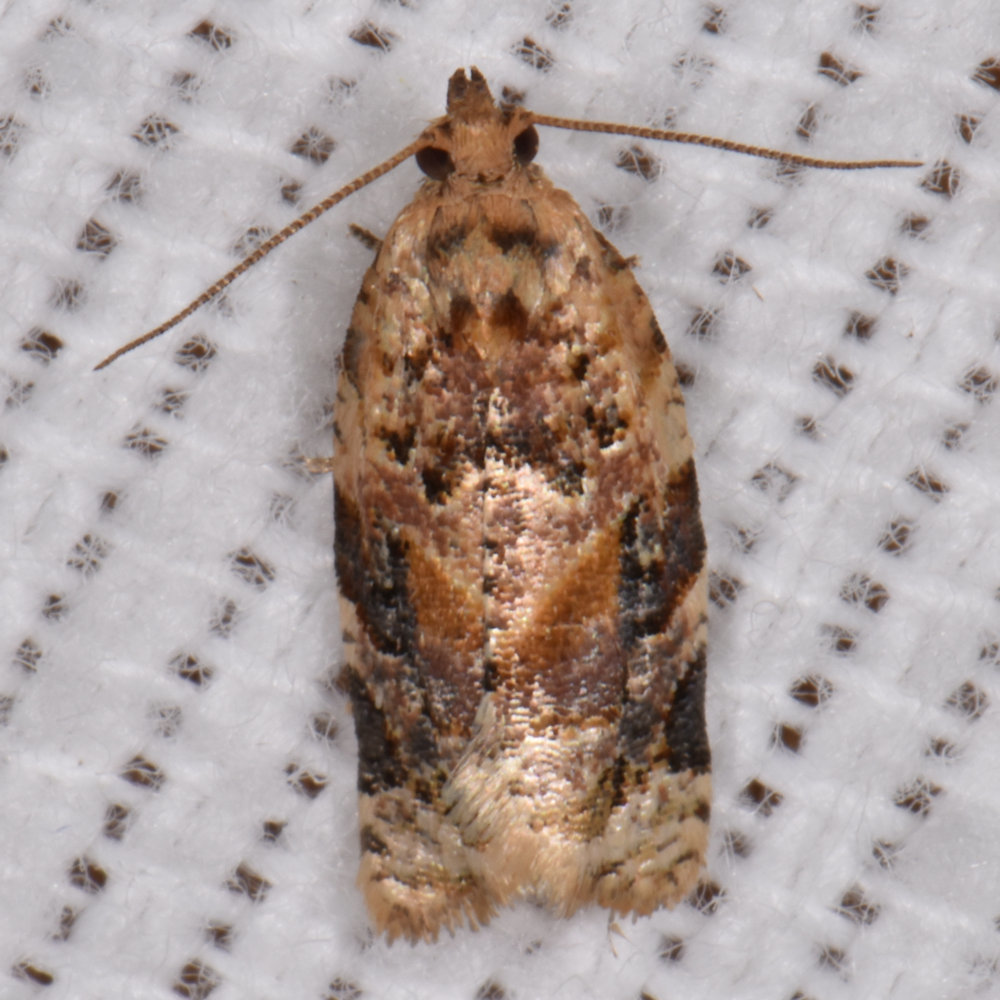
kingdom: Animalia
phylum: Arthropoda
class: Insecta
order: Lepidoptera
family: Tortricidae
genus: Argyrotaenia
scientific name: Argyrotaenia velutinana
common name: Red-banded leafroller moth
